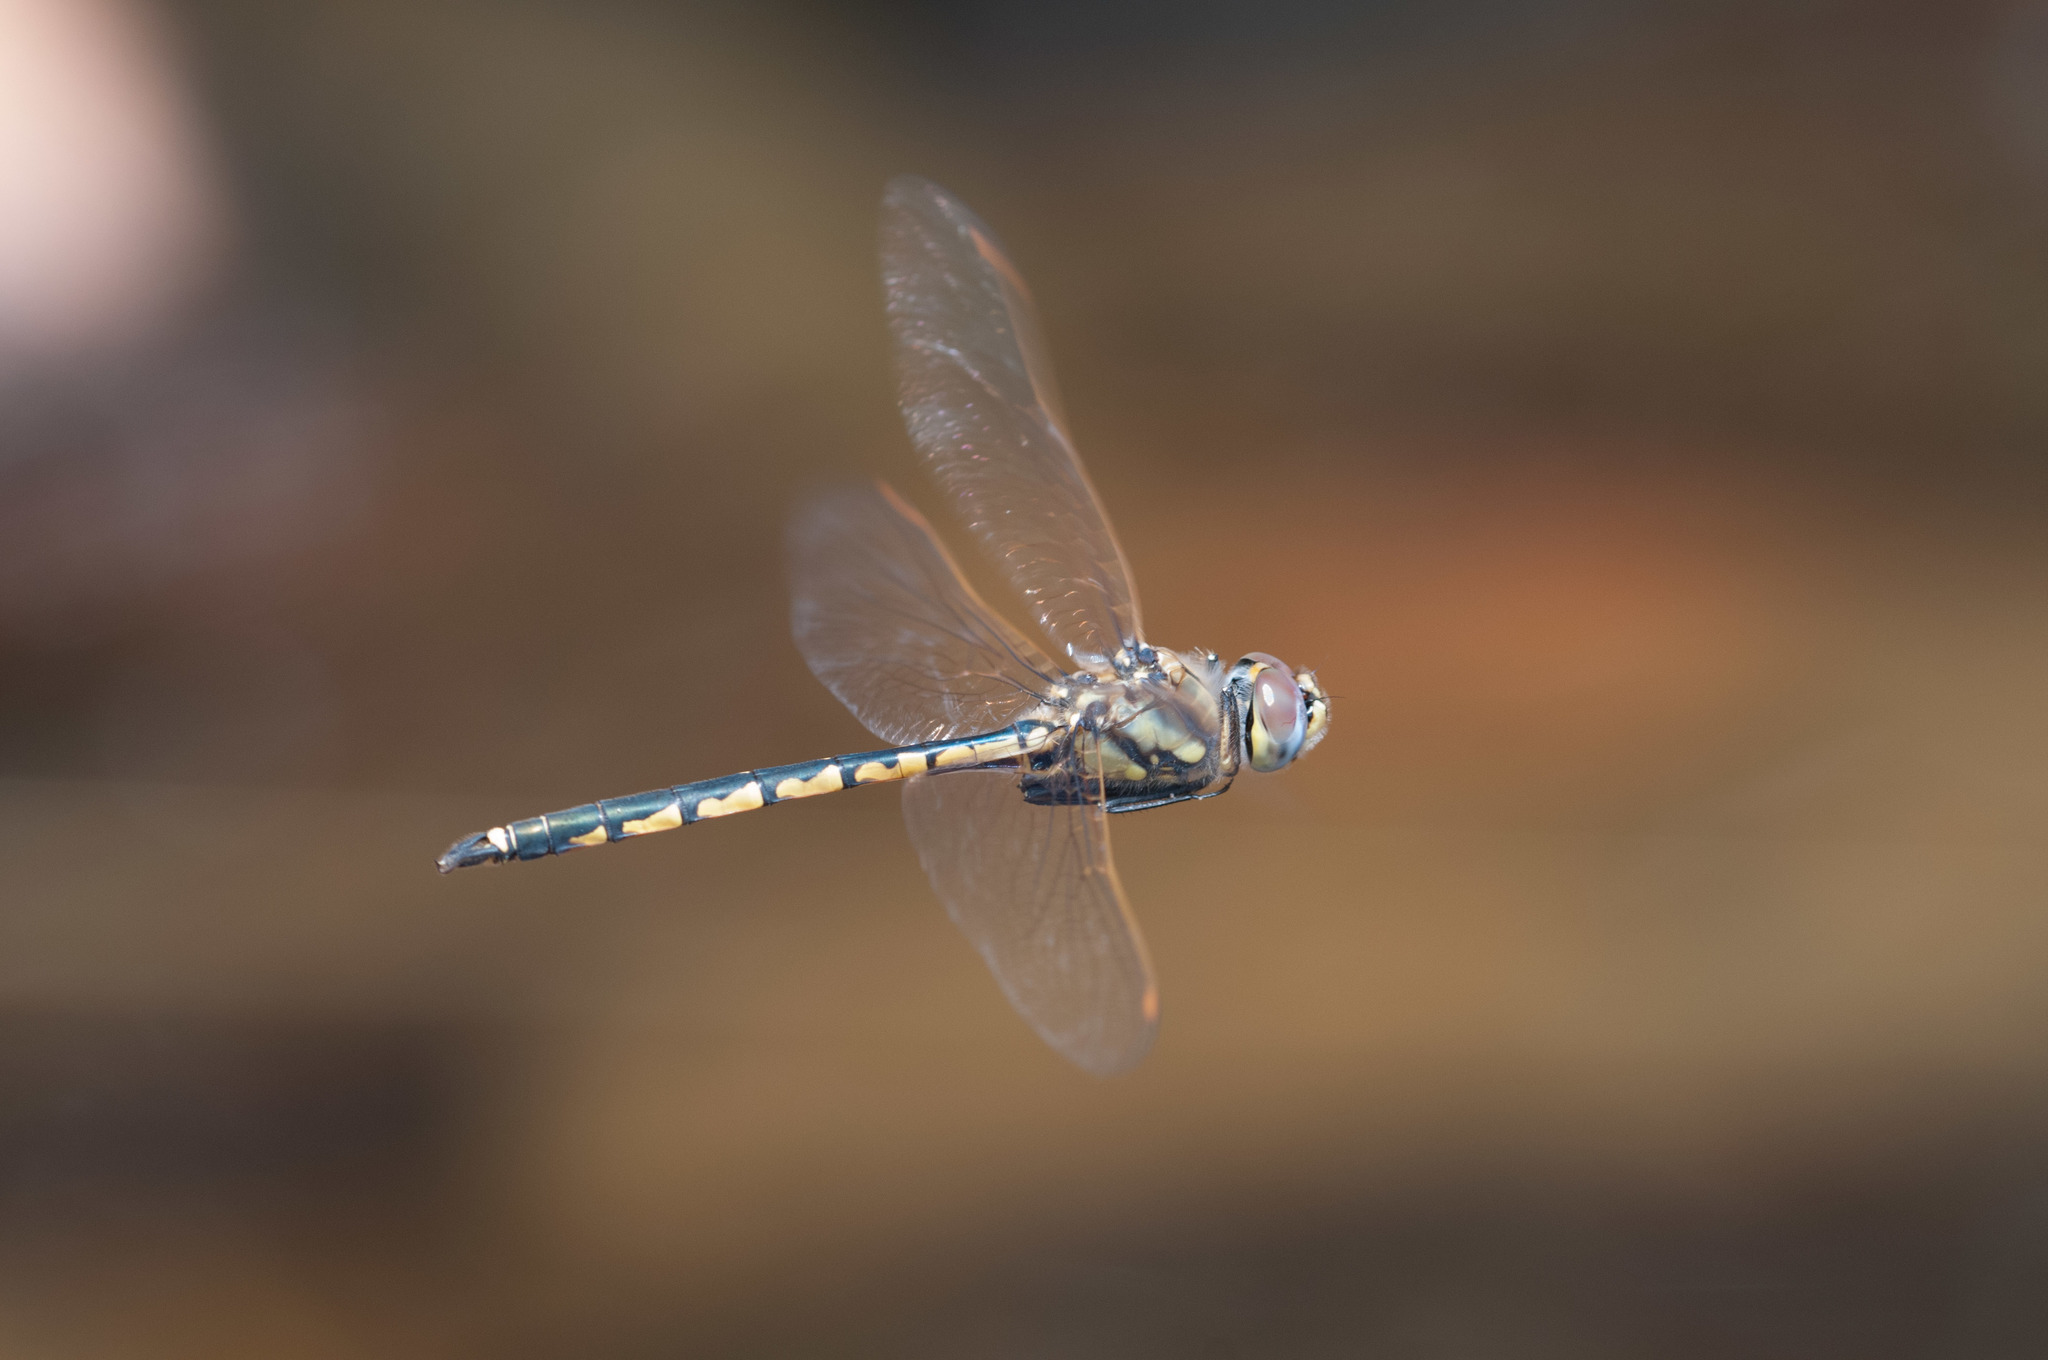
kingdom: Animalia
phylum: Arthropoda
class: Insecta
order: Odonata
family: Corduliidae
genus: Hemicordulia
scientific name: Hemicordulia tau
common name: Tau emerald
